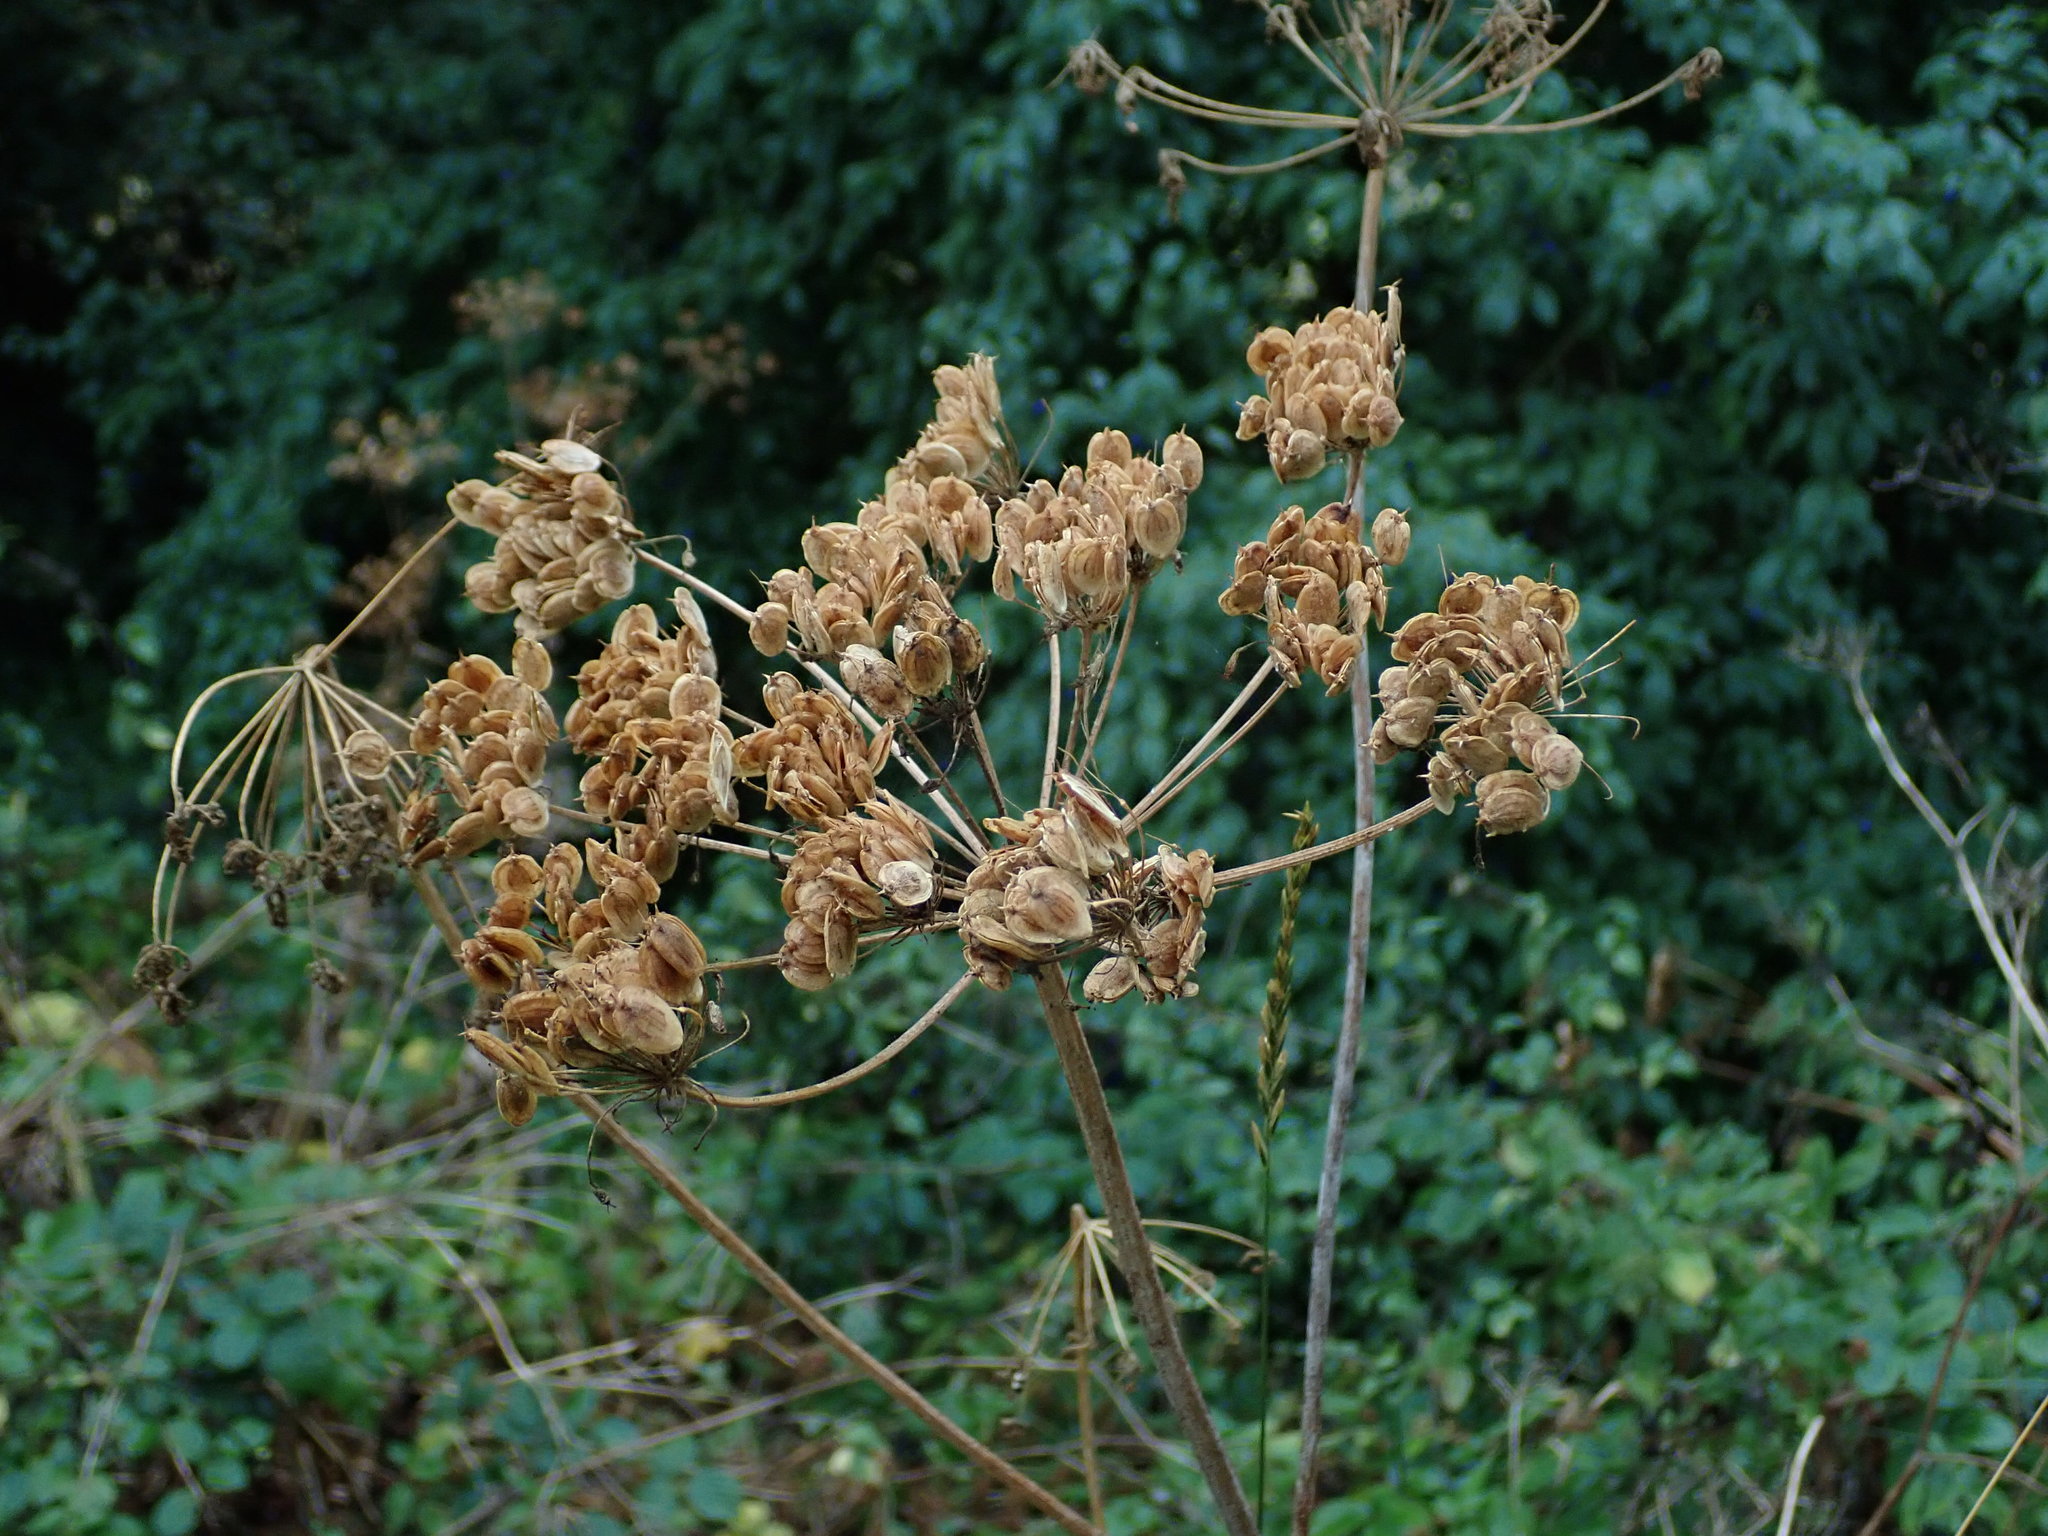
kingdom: Plantae
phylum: Tracheophyta
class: Magnoliopsida
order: Apiales
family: Apiaceae
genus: Heracleum
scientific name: Heracleum sphondylium
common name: Hogweed
